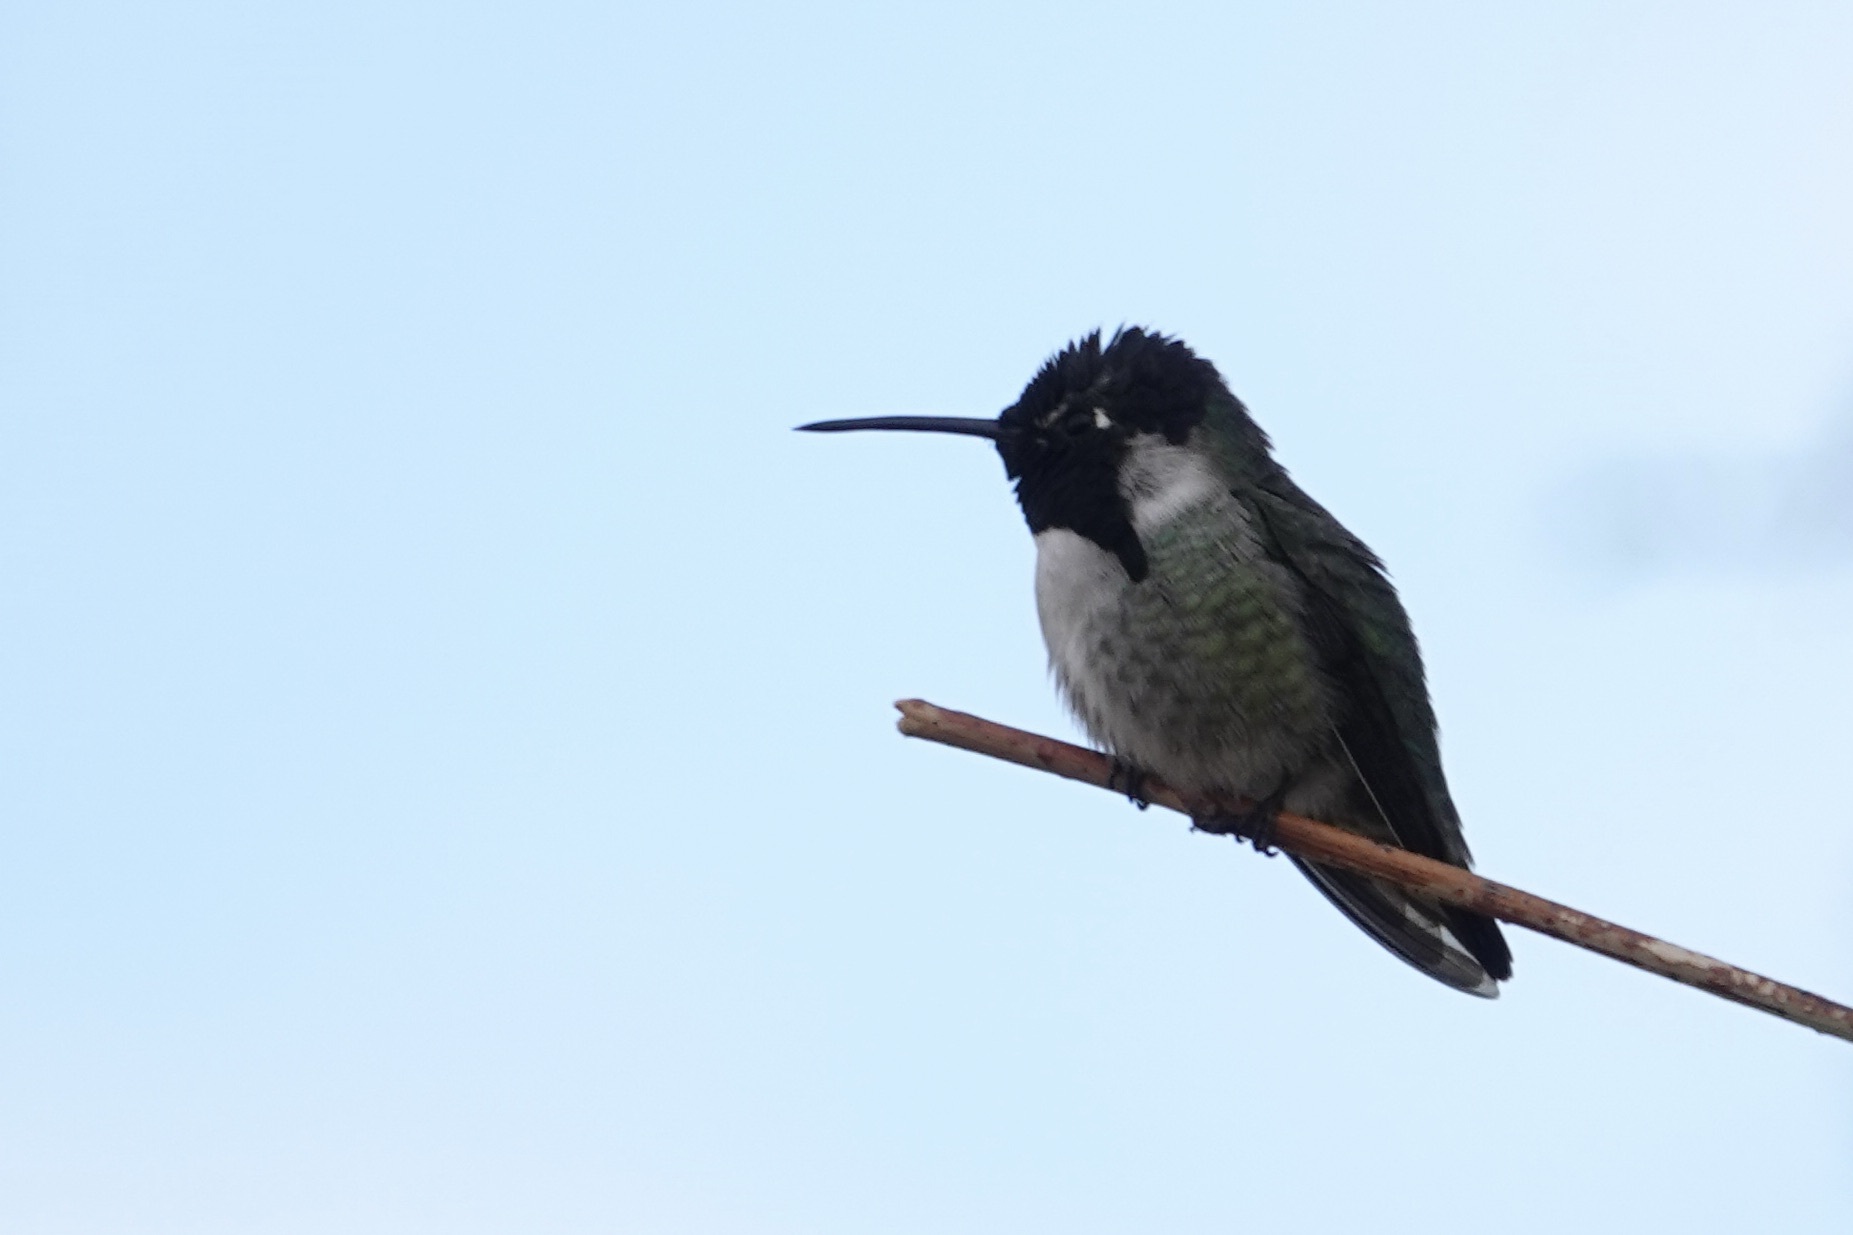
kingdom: Animalia
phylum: Chordata
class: Aves
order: Apodiformes
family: Trochilidae
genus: Calypte
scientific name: Calypte costae
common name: Costa's hummingbird
